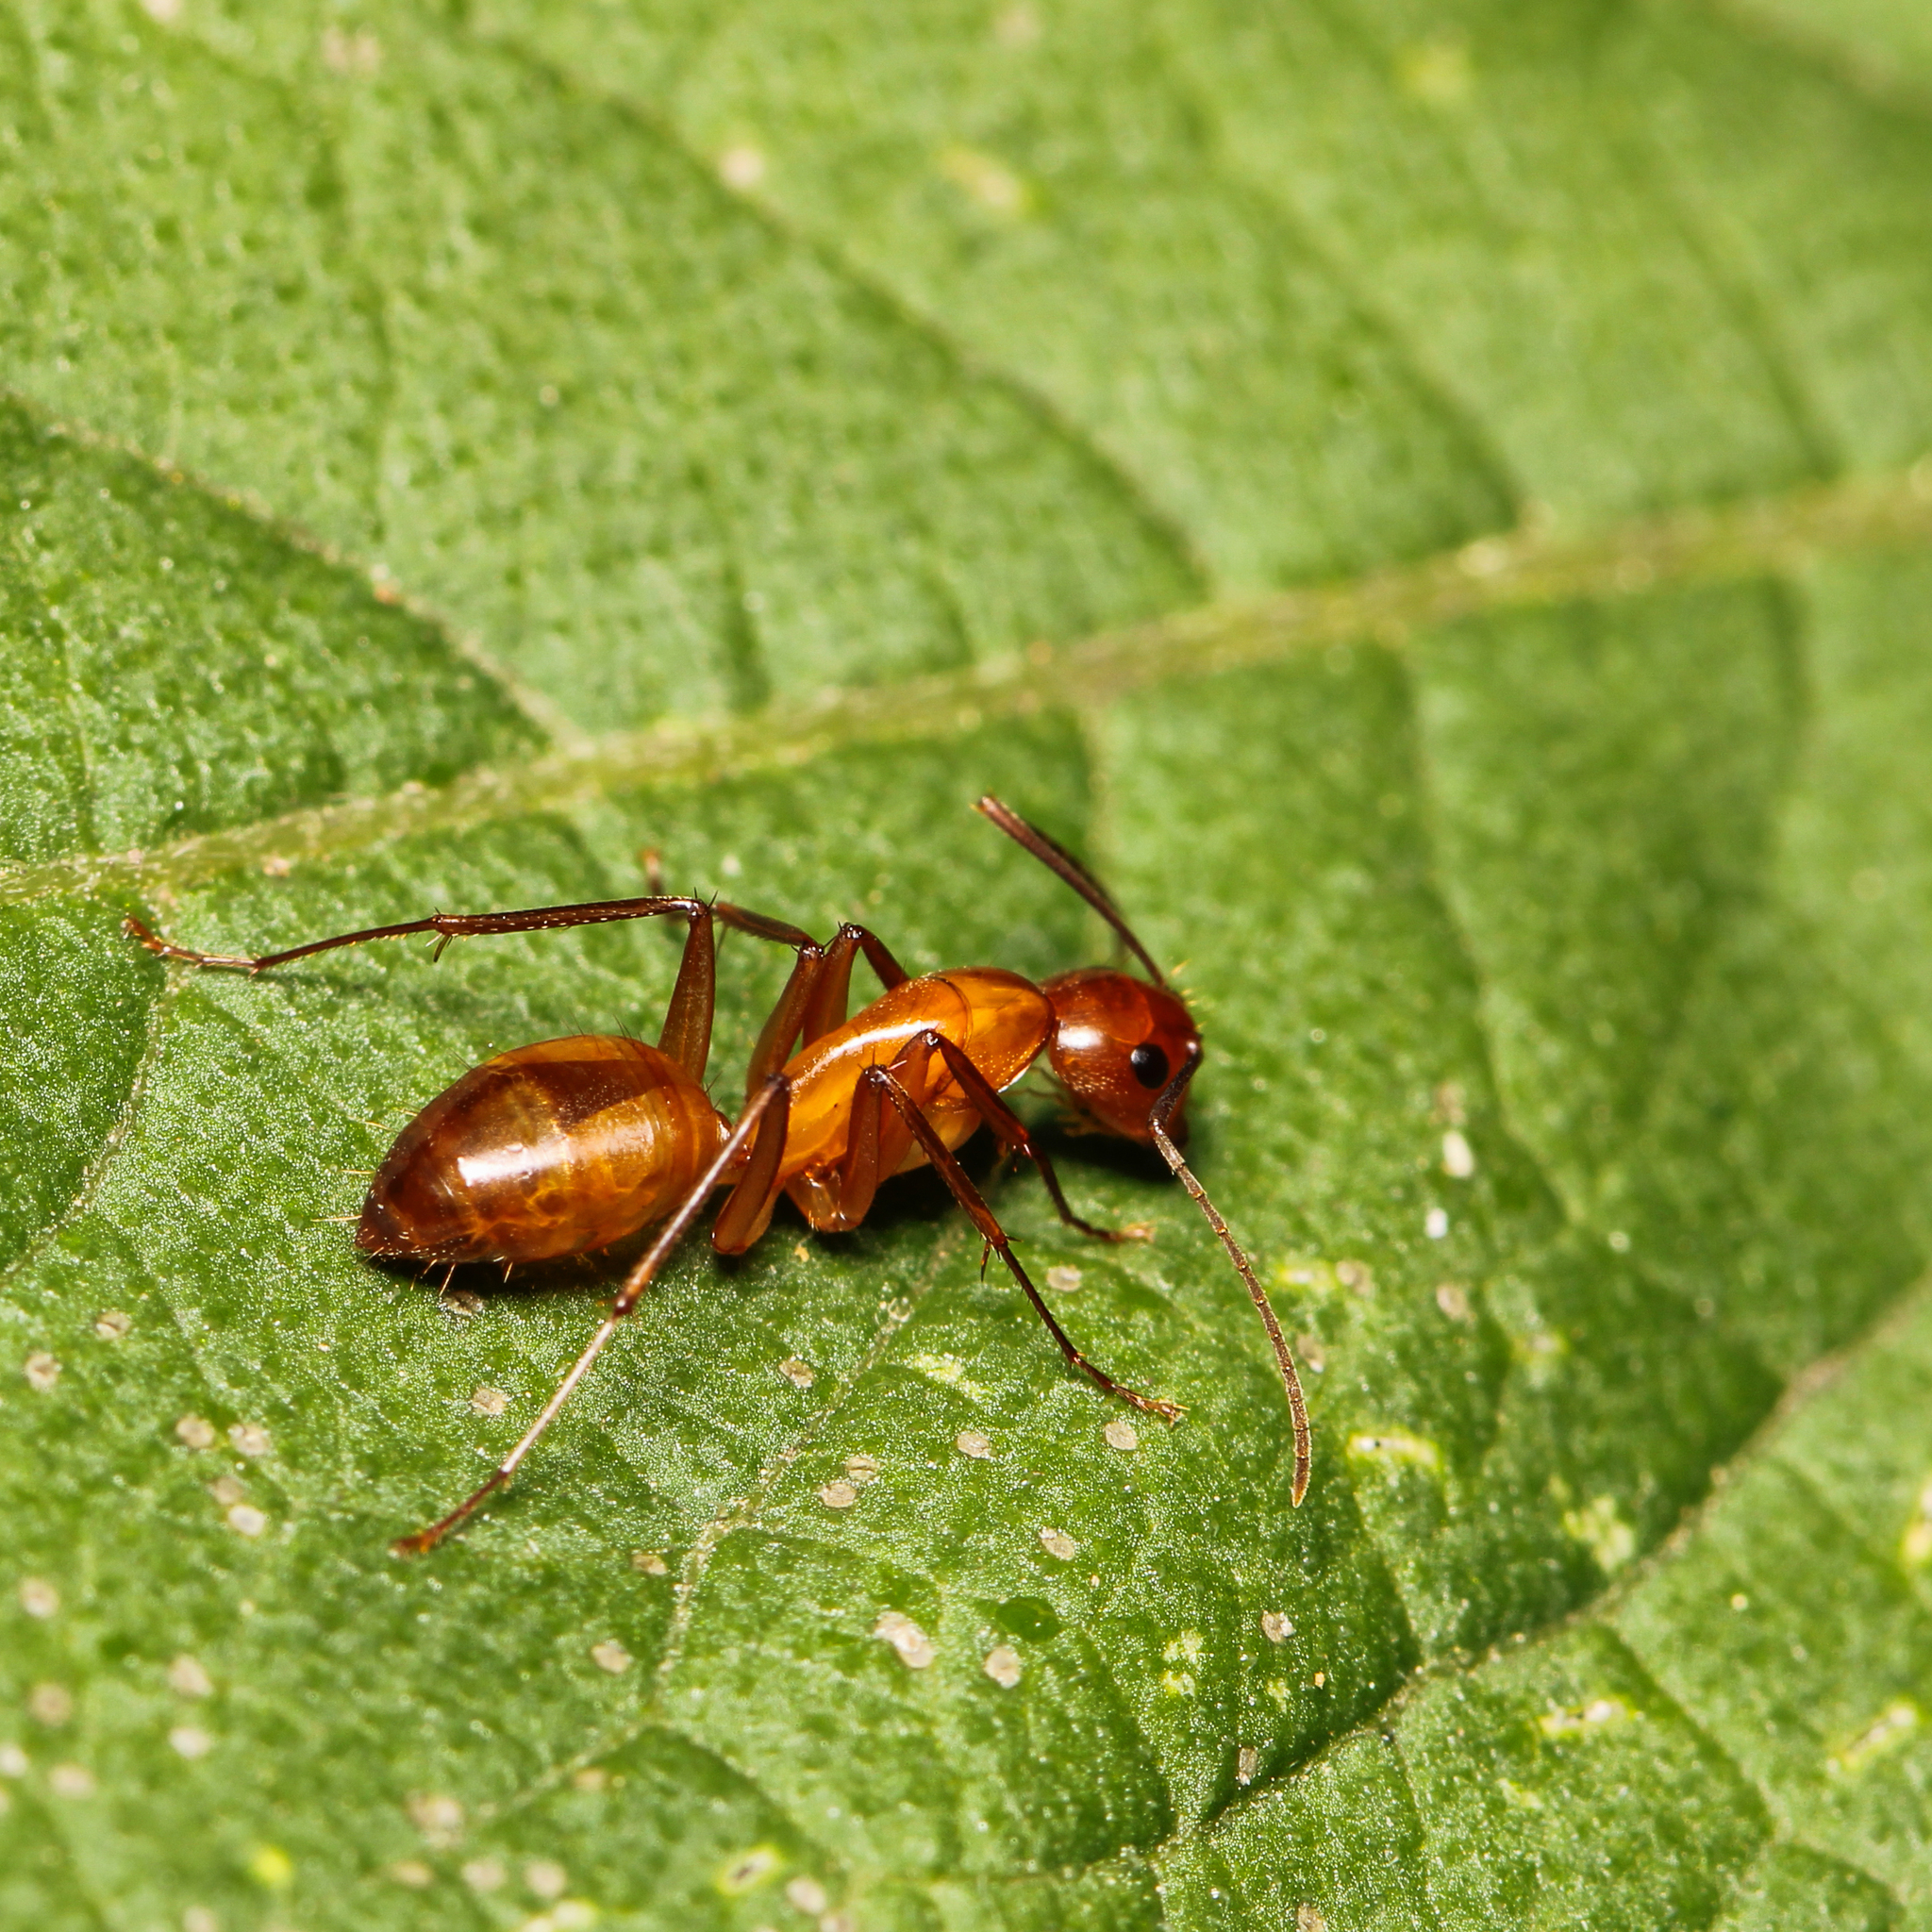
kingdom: Animalia
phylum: Arthropoda
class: Insecta
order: Hymenoptera
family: Formicidae
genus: Camponotus
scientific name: Camponotus castaneus
